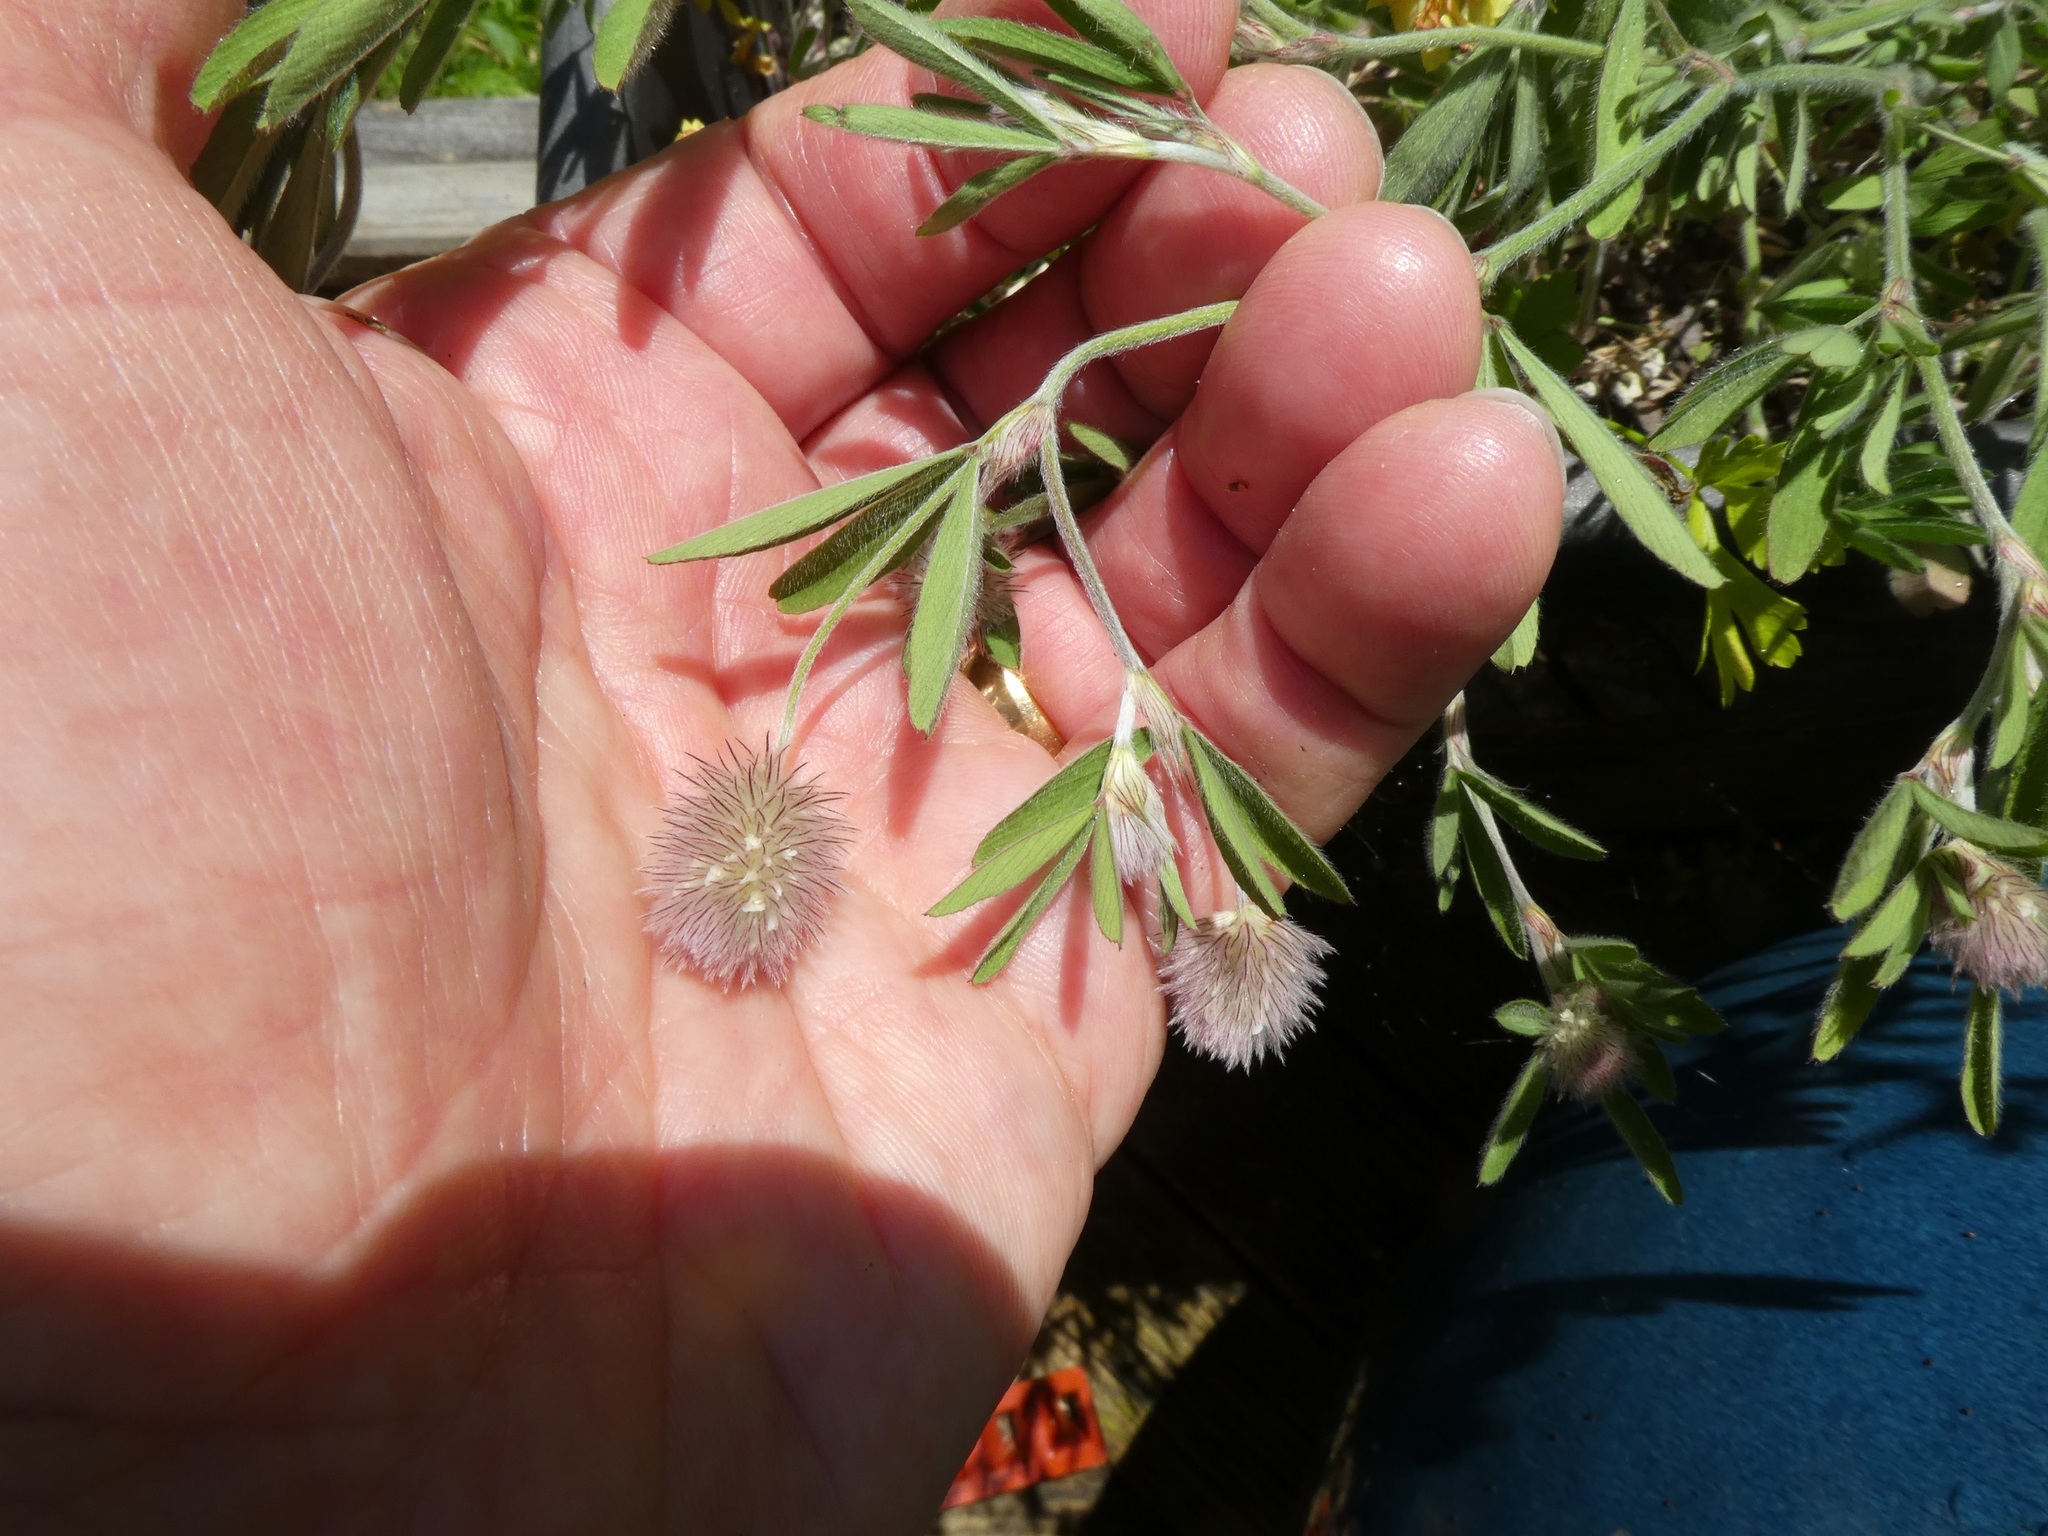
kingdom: Plantae
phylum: Tracheophyta
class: Magnoliopsida
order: Fabales
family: Fabaceae
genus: Trifolium
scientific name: Trifolium arvense
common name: Hare's-foot clover
